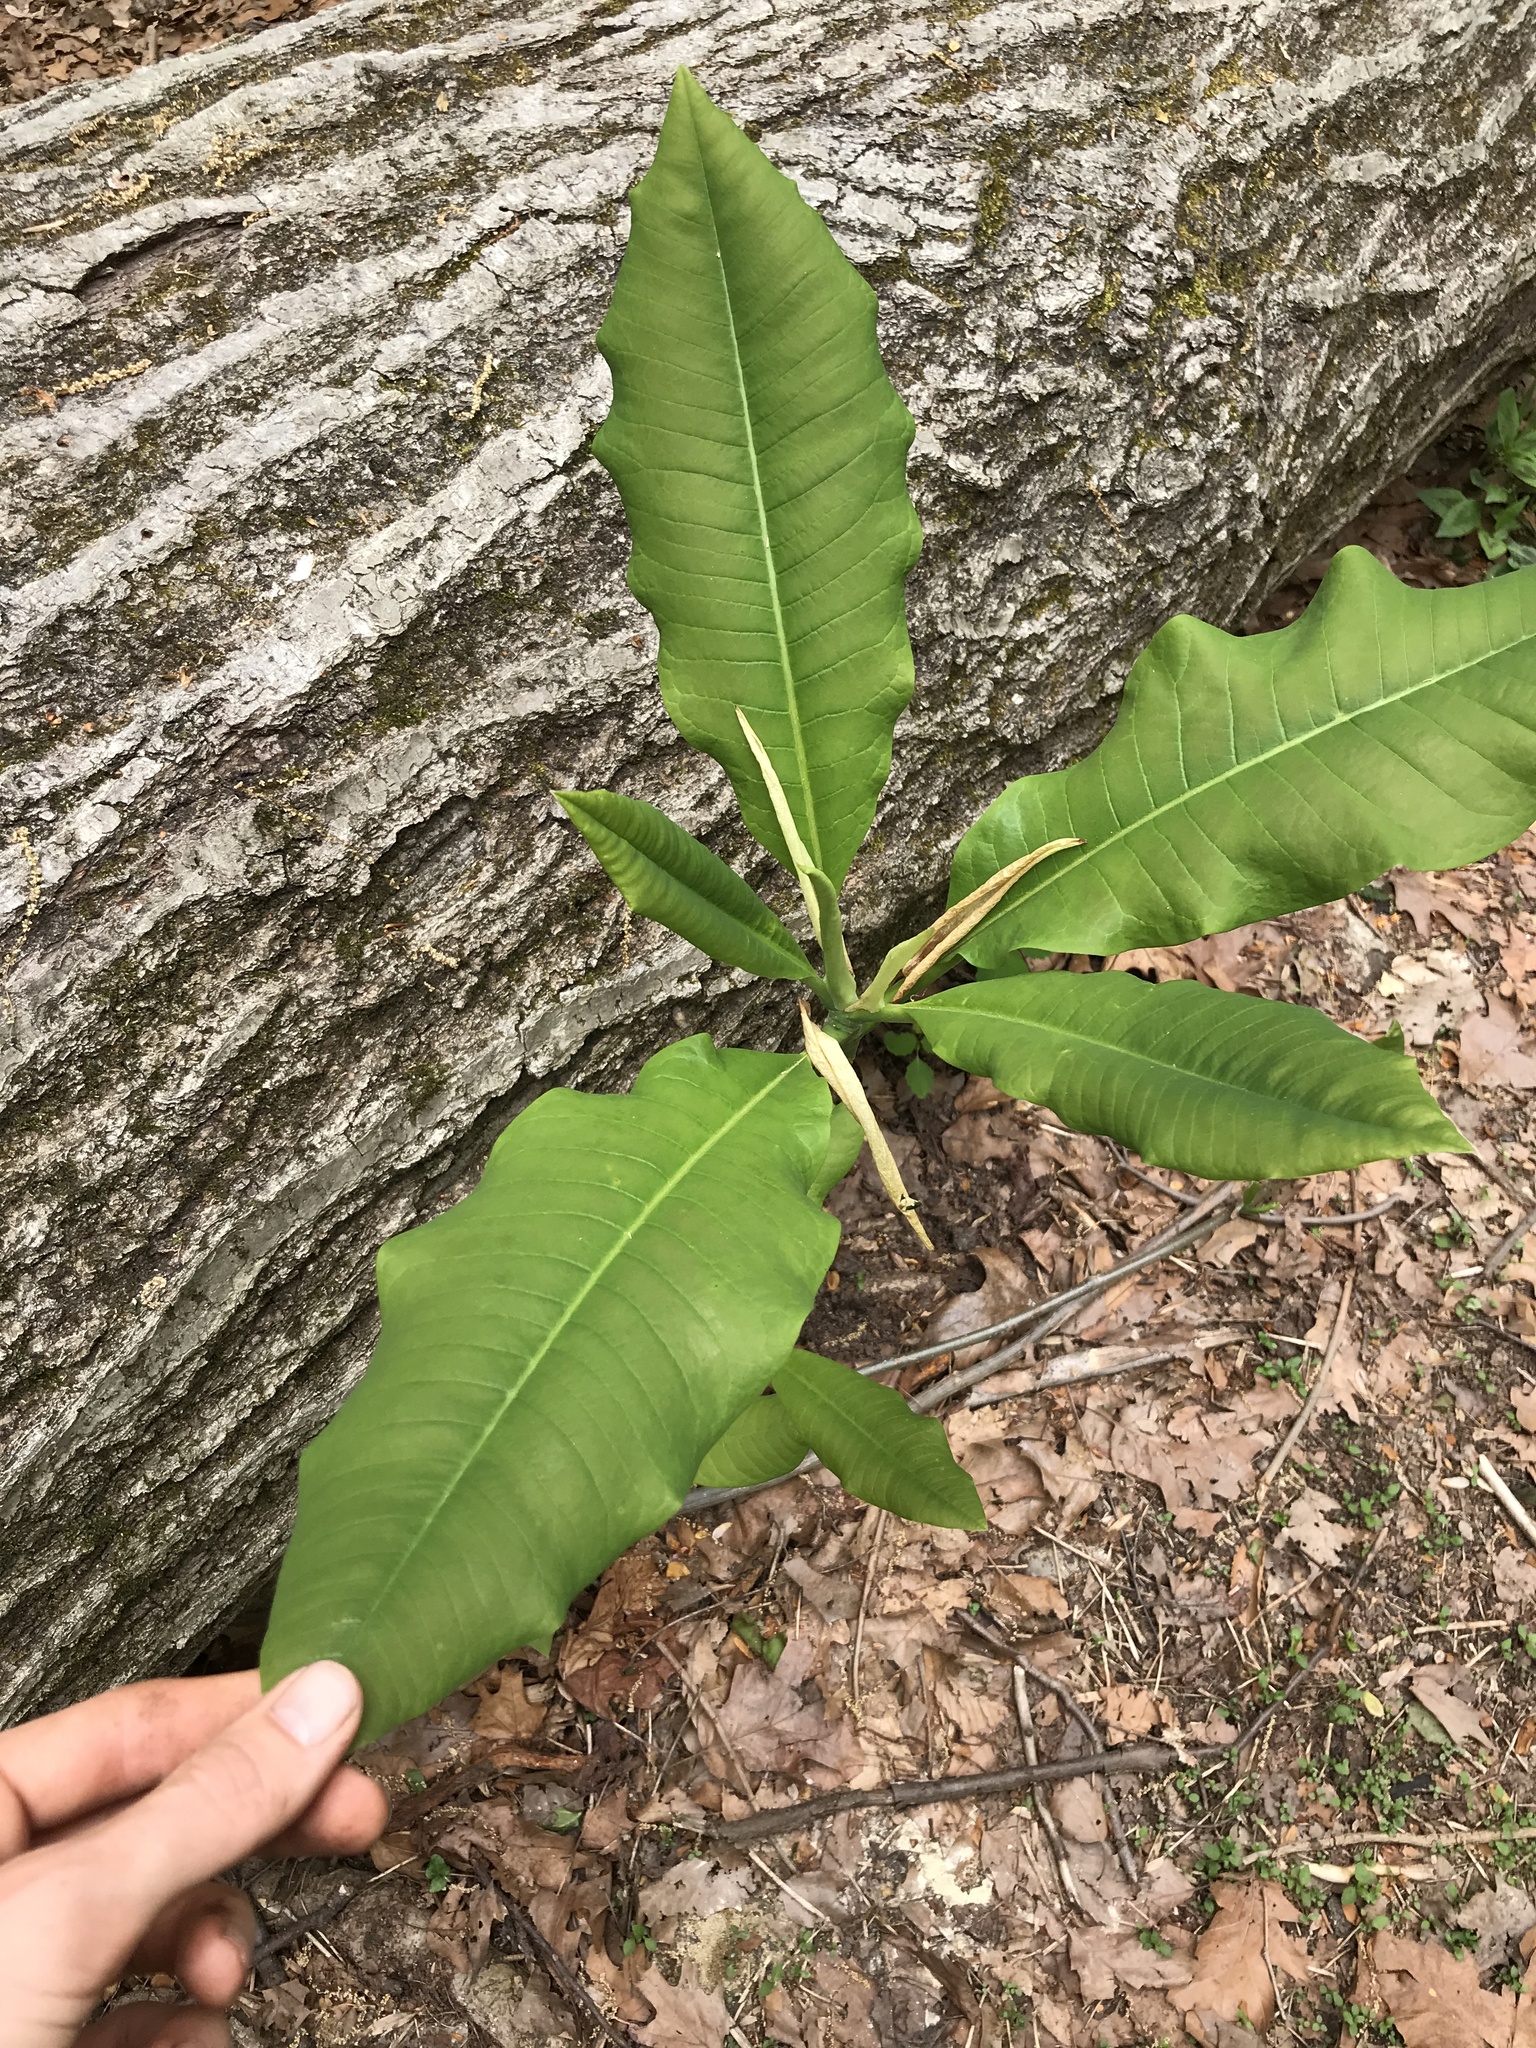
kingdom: Plantae
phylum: Tracheophyta
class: Magnoliopsida
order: Magnoliales
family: Magnoliaceae
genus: Magnolia
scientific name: Magnolia tripetala
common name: Umbrella magnolia
